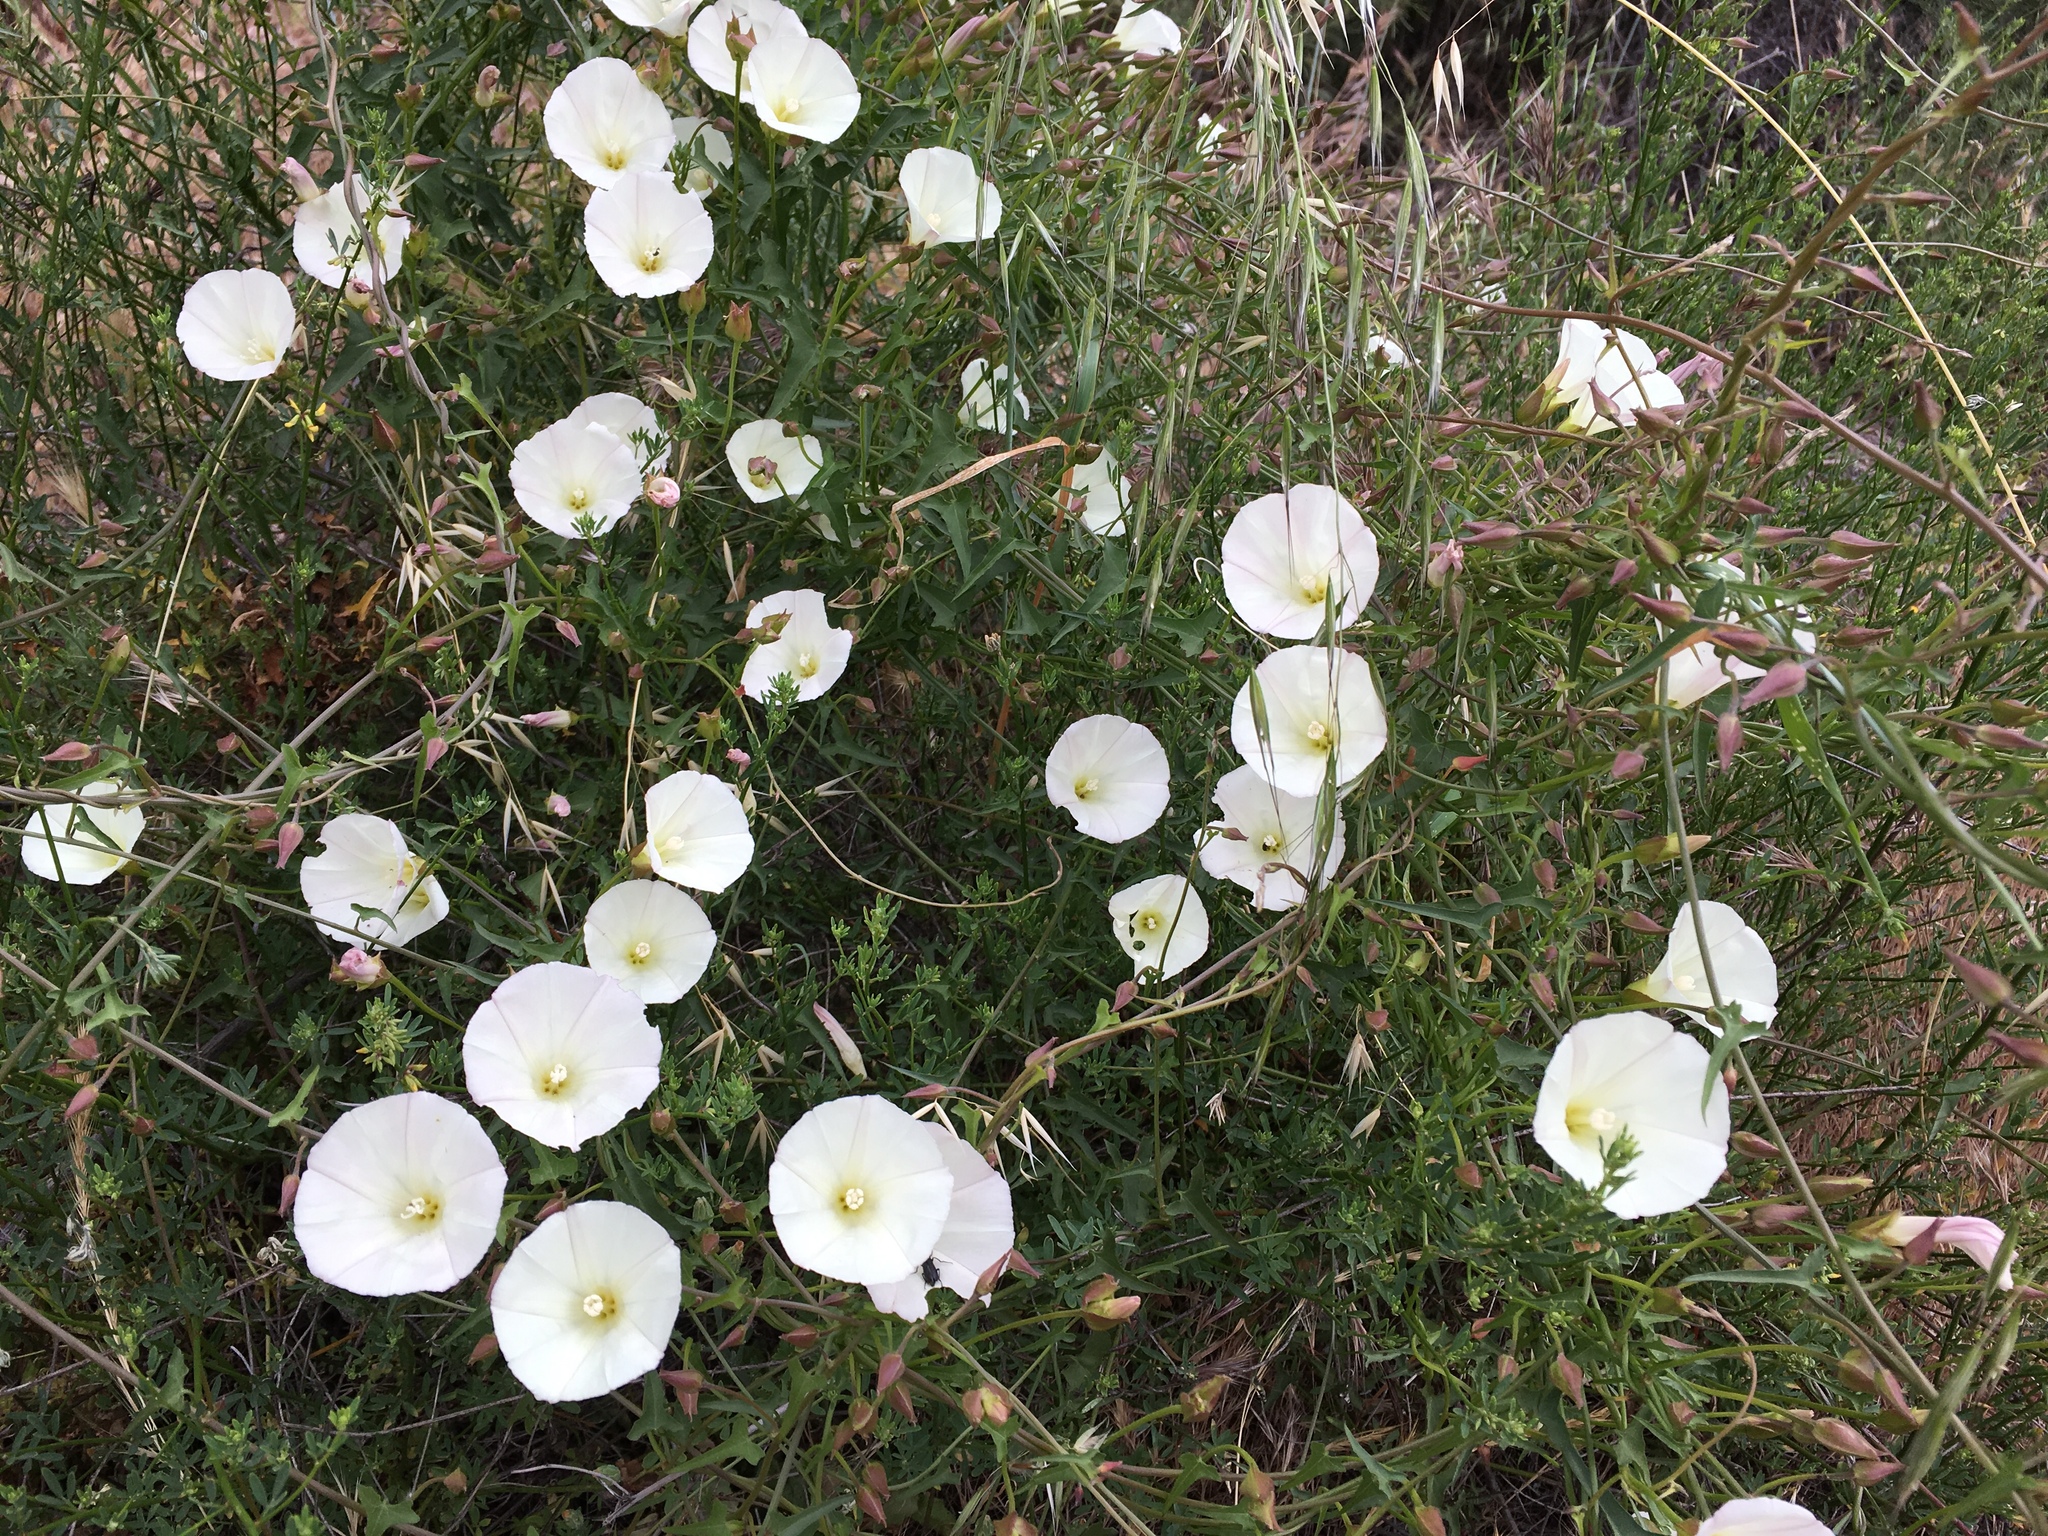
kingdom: Plantae
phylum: Tracheophyta
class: Magnoliopsida
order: Solanales
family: Convolvulaceae
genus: Calystegia
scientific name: Calystegia macrostegia
